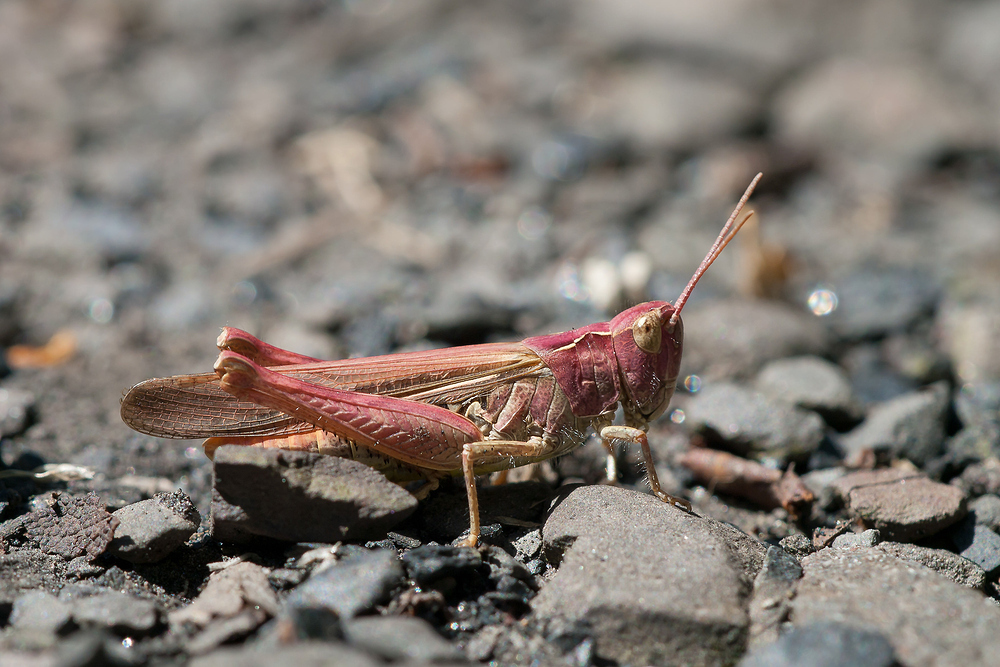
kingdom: Animalia
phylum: Arthropoda
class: Insecta
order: Orthoptera
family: Acrididae
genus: Chorthippus
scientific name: Chorthippus brunneus
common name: Field grasshopper
